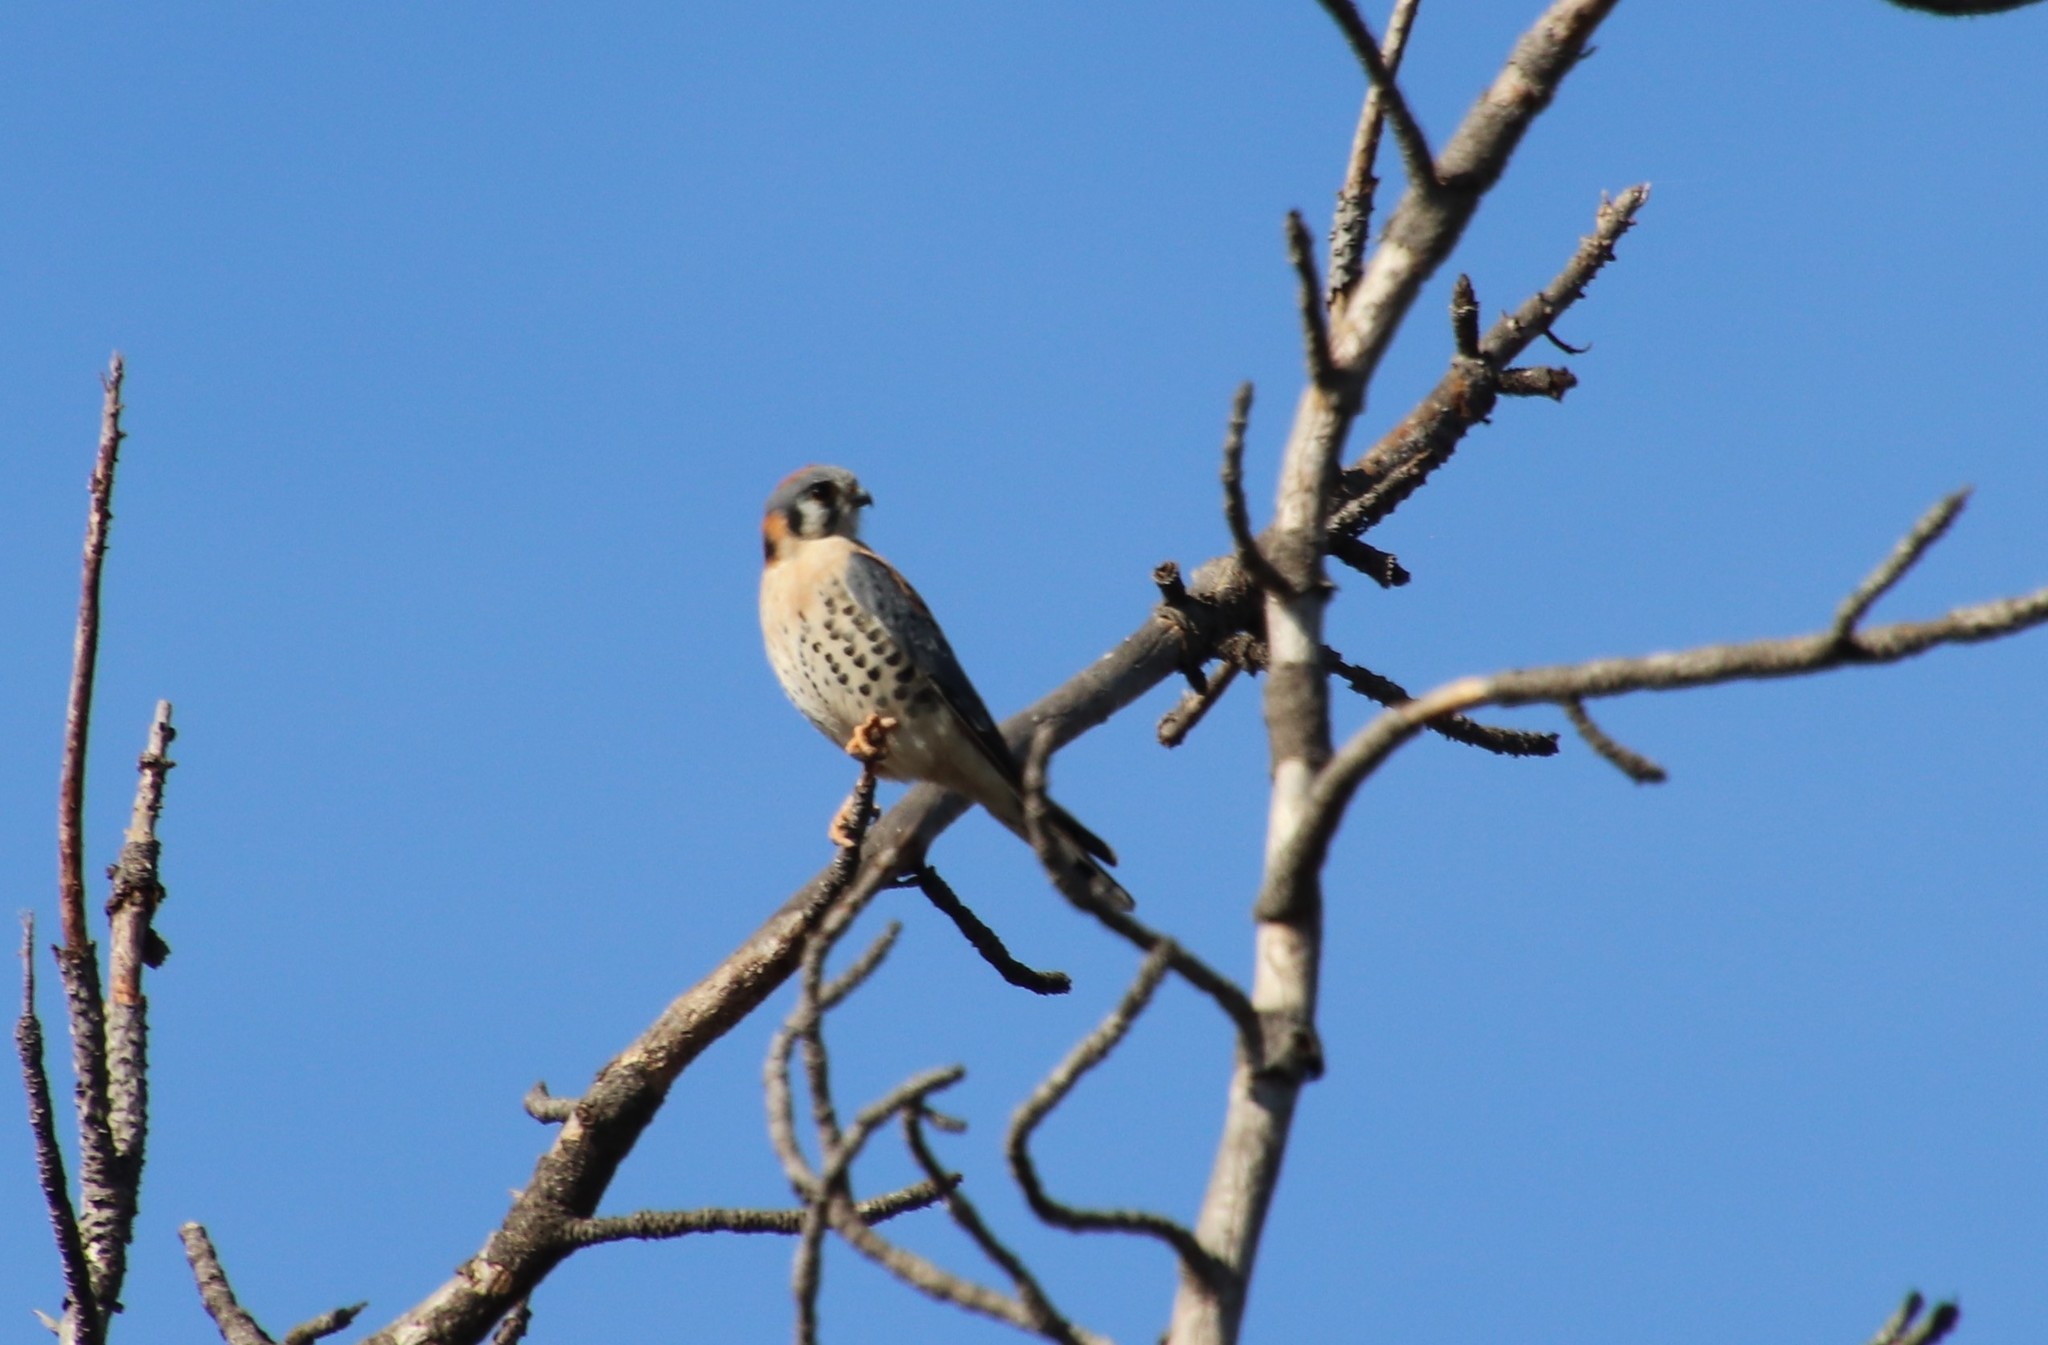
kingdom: Animalia
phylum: Chordata
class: Aves
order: Falconiformes
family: Falconidae
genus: Falco
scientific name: Falco sparverius
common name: American kestrel
